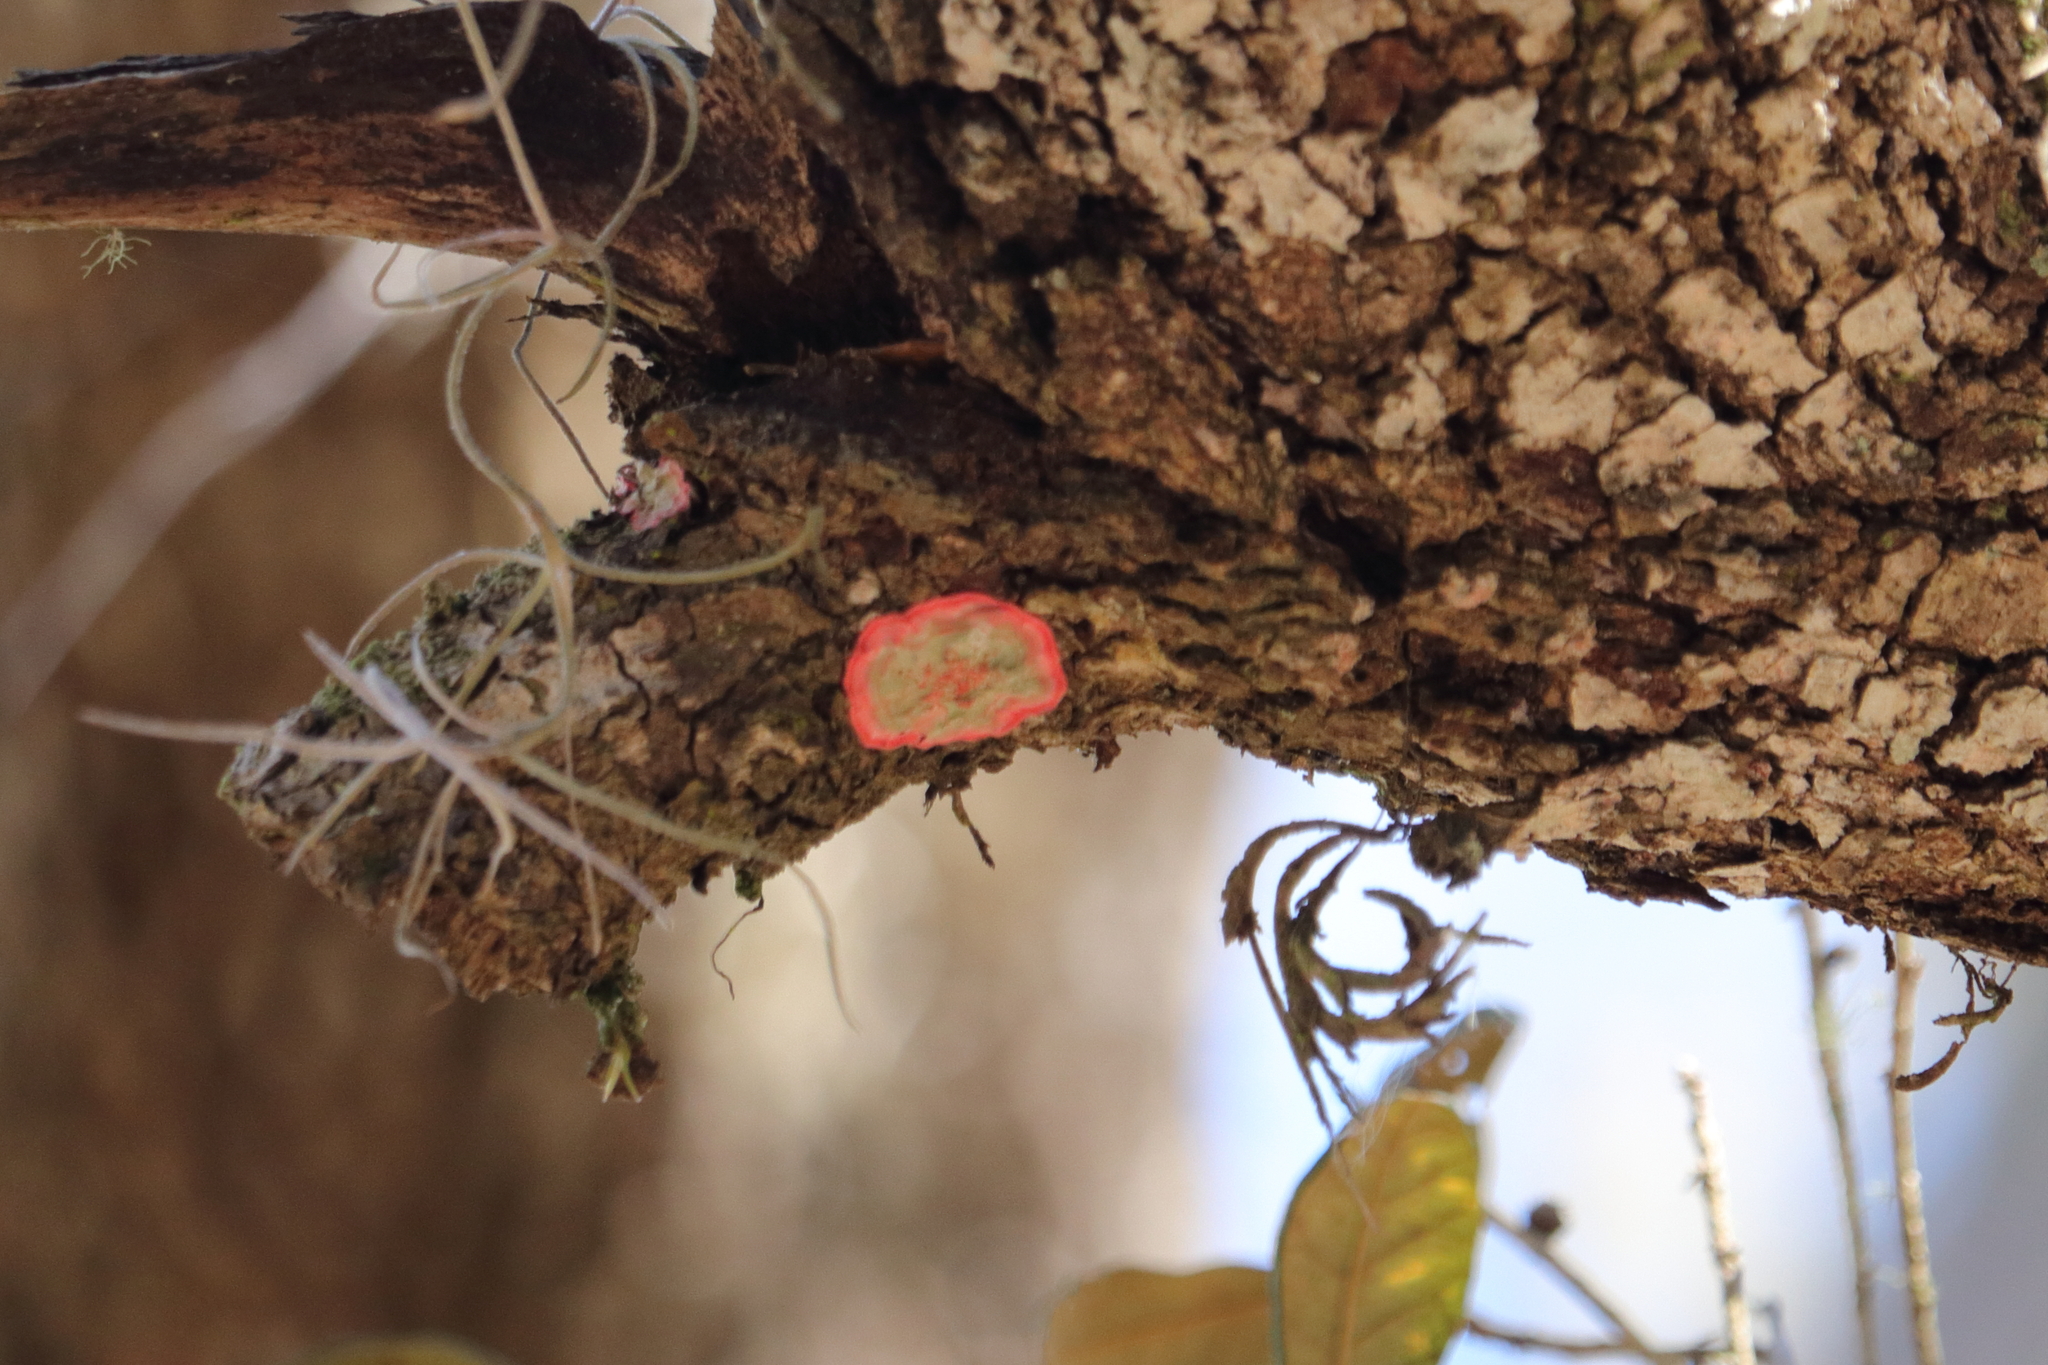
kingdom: Fungi
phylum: Ascomycota
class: Arthoniomycetes
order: Arthoniales
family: Arthoniaceae
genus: Herpothallon
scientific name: Herpothallon rubrocinctum
